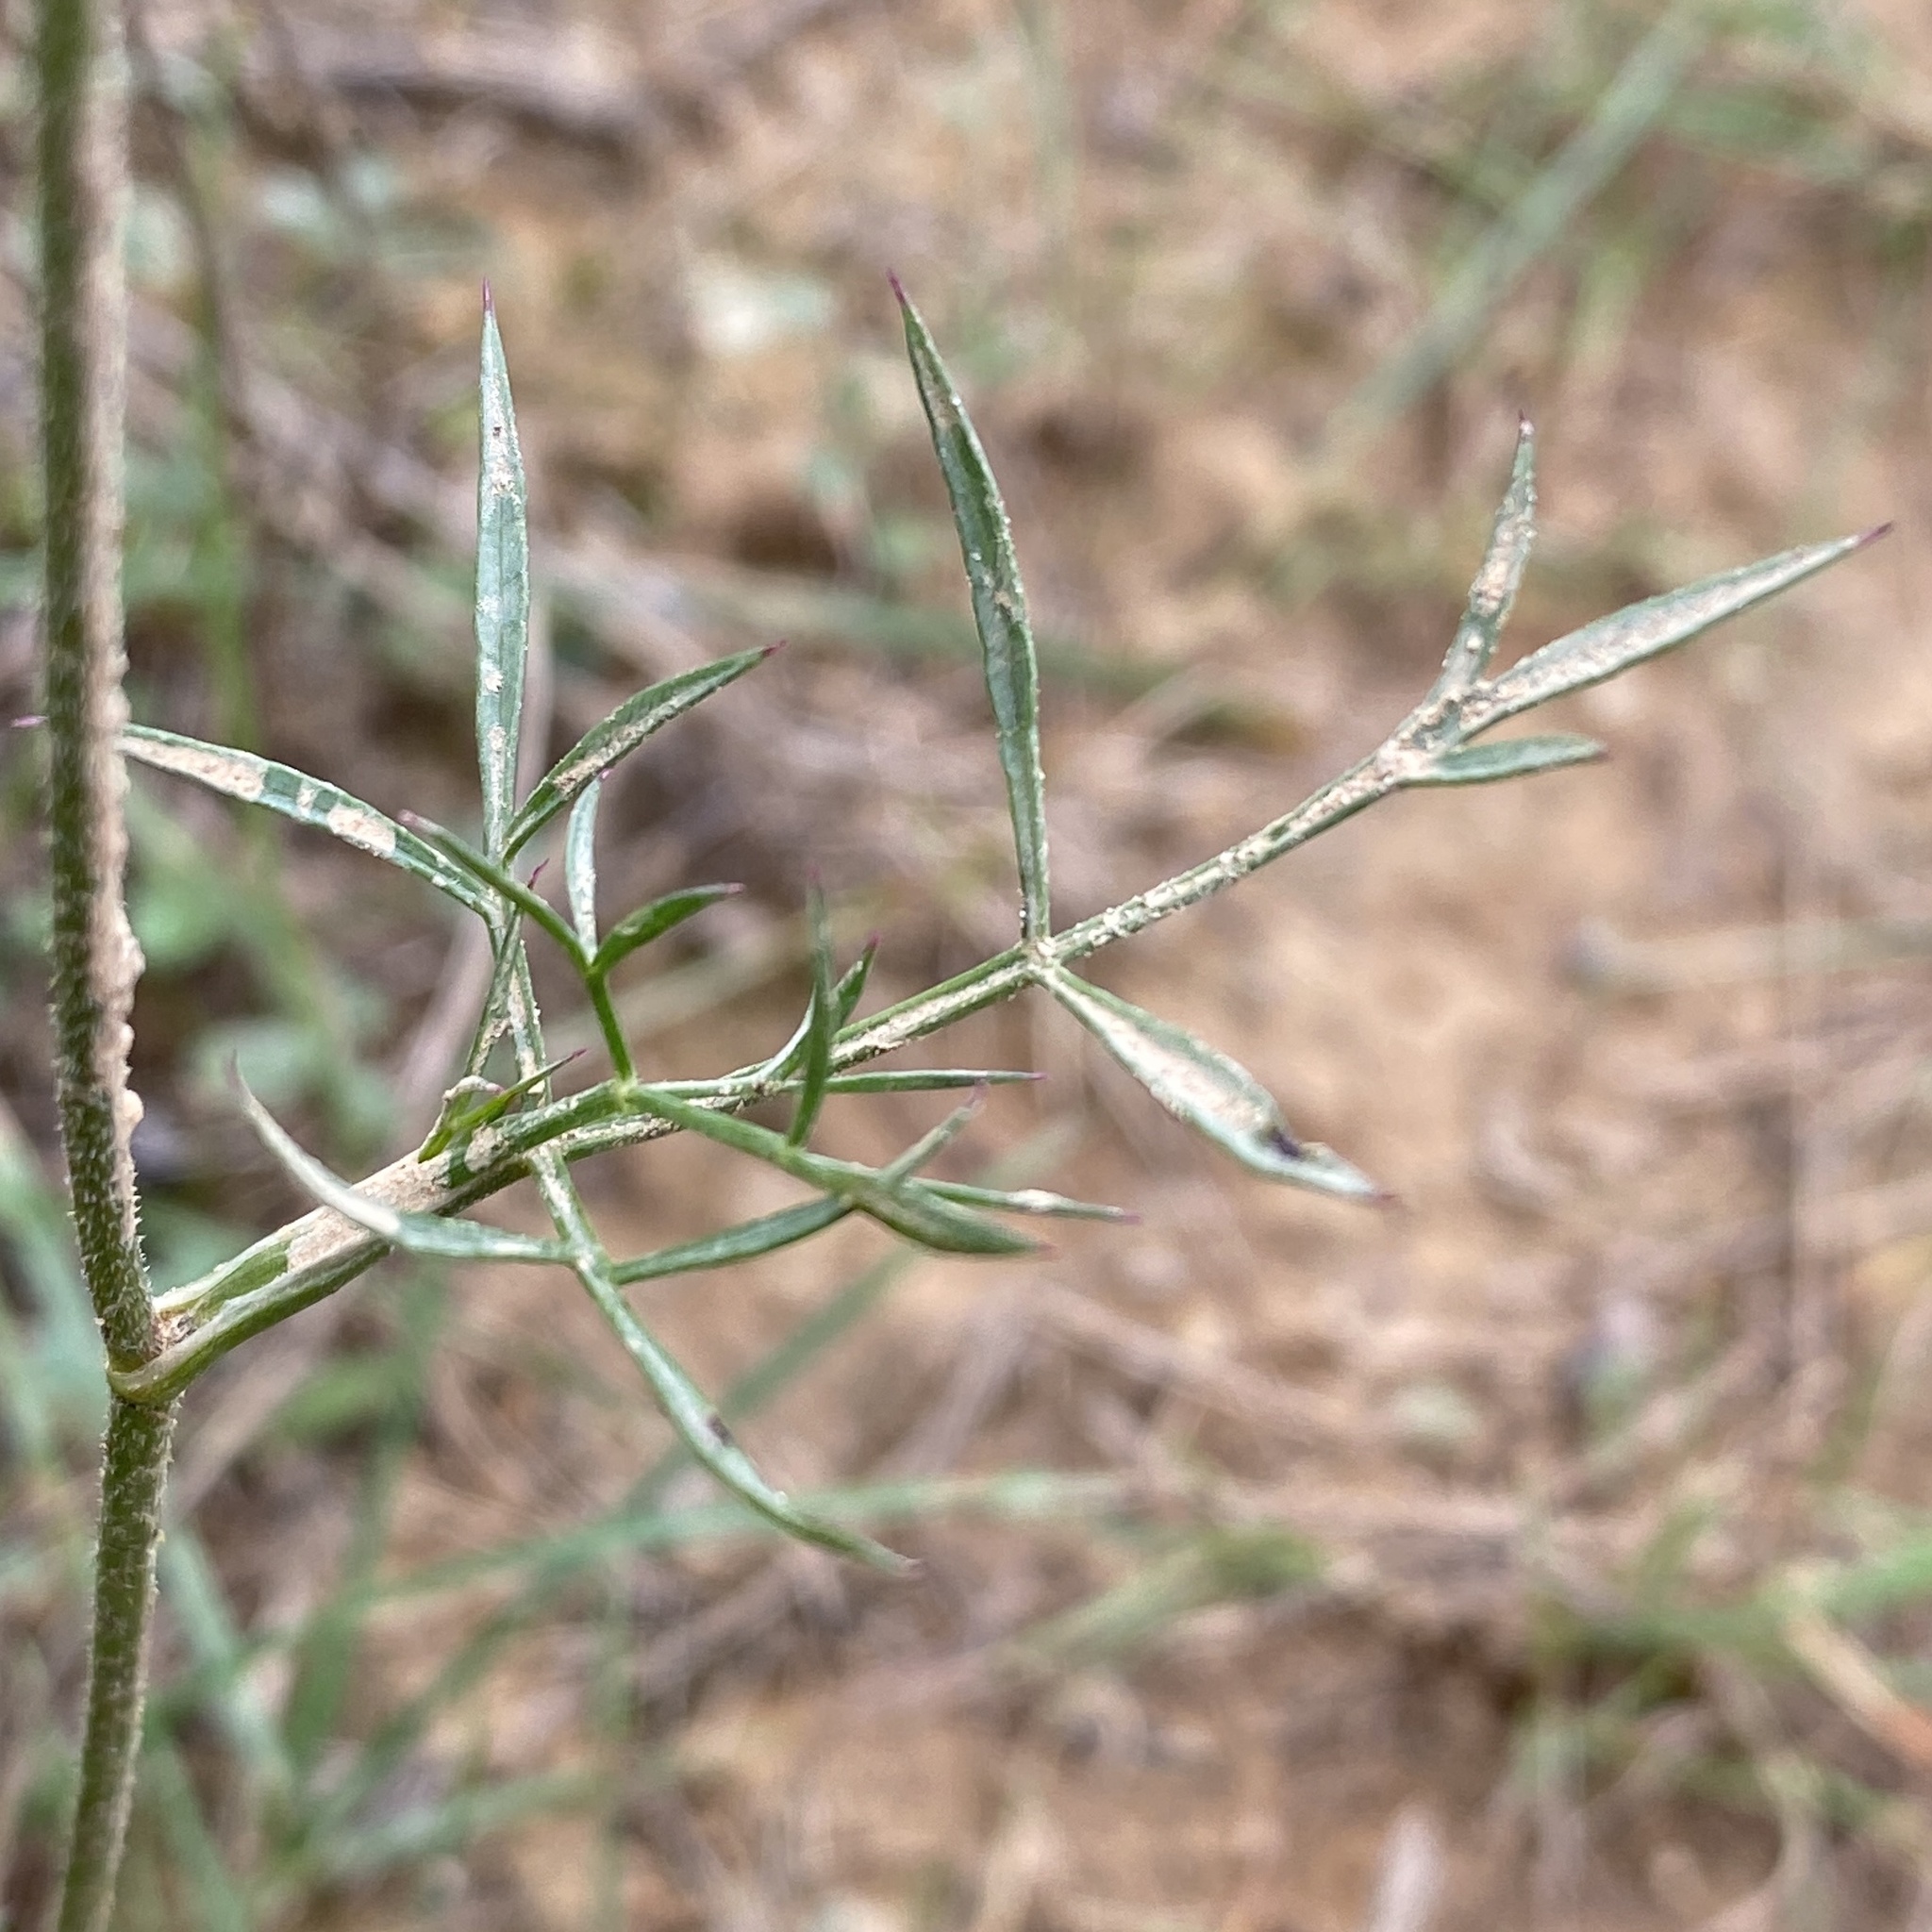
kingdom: Plantae
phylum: Tracheophyta
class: Magnoliopsida
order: Apiales
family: Apiaceae
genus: Daucus
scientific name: Daucus carota
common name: Wild carrot
